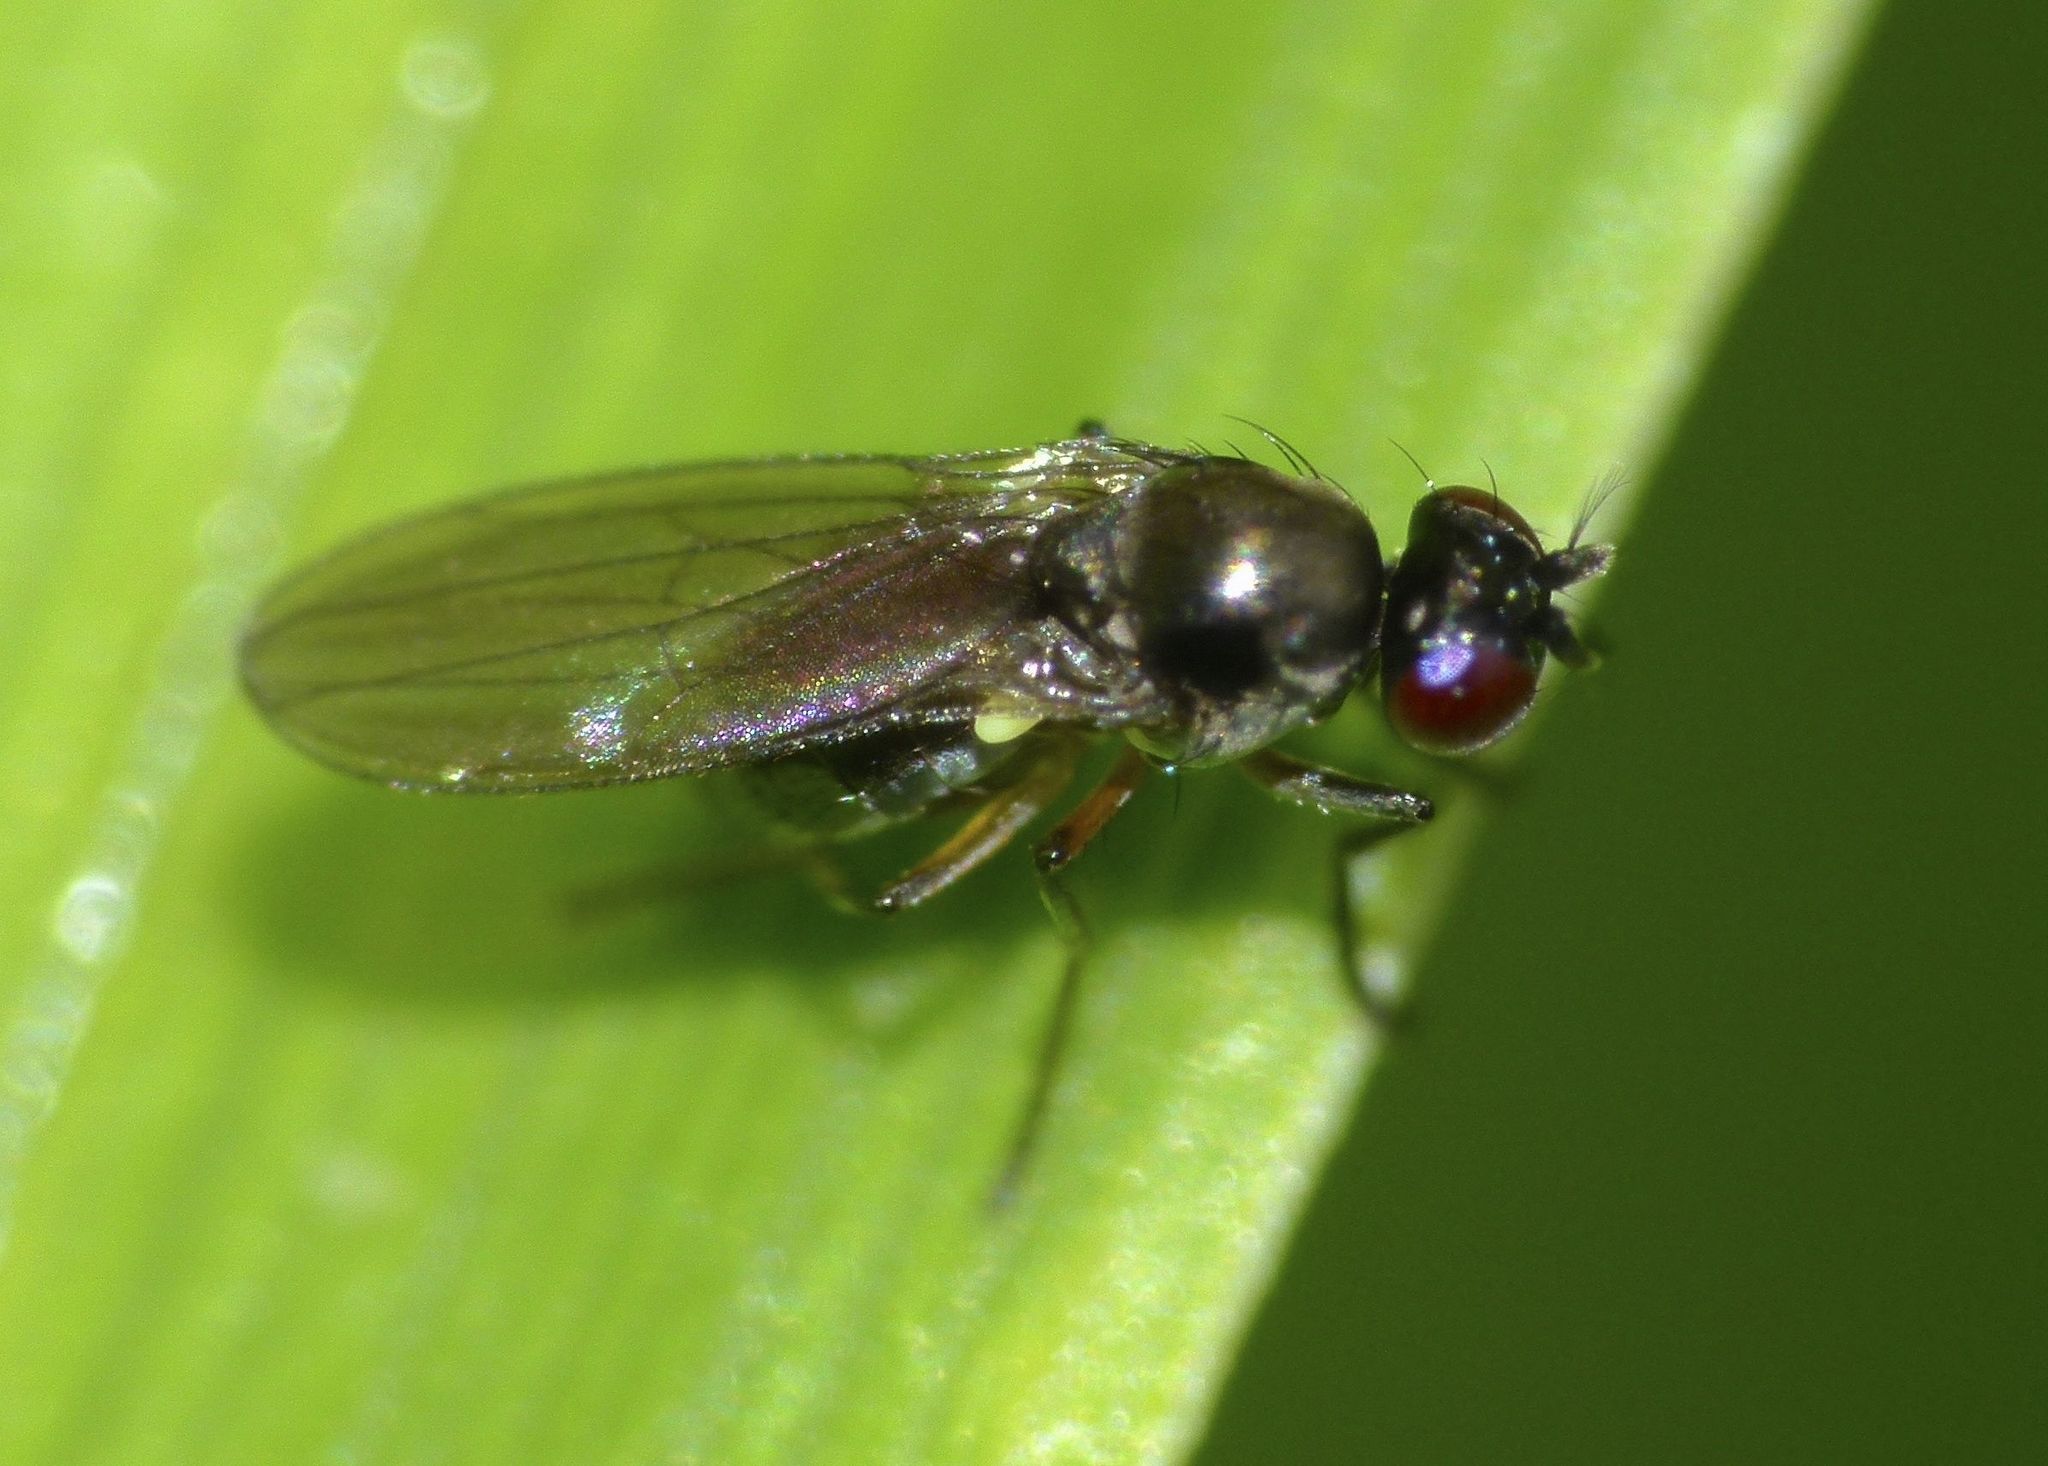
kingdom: Animalia
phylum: Arthropoda
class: Insecta
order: Diptera
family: Ephydridae
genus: Hydrellia
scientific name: Hydrellia tritici
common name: Shore fly
